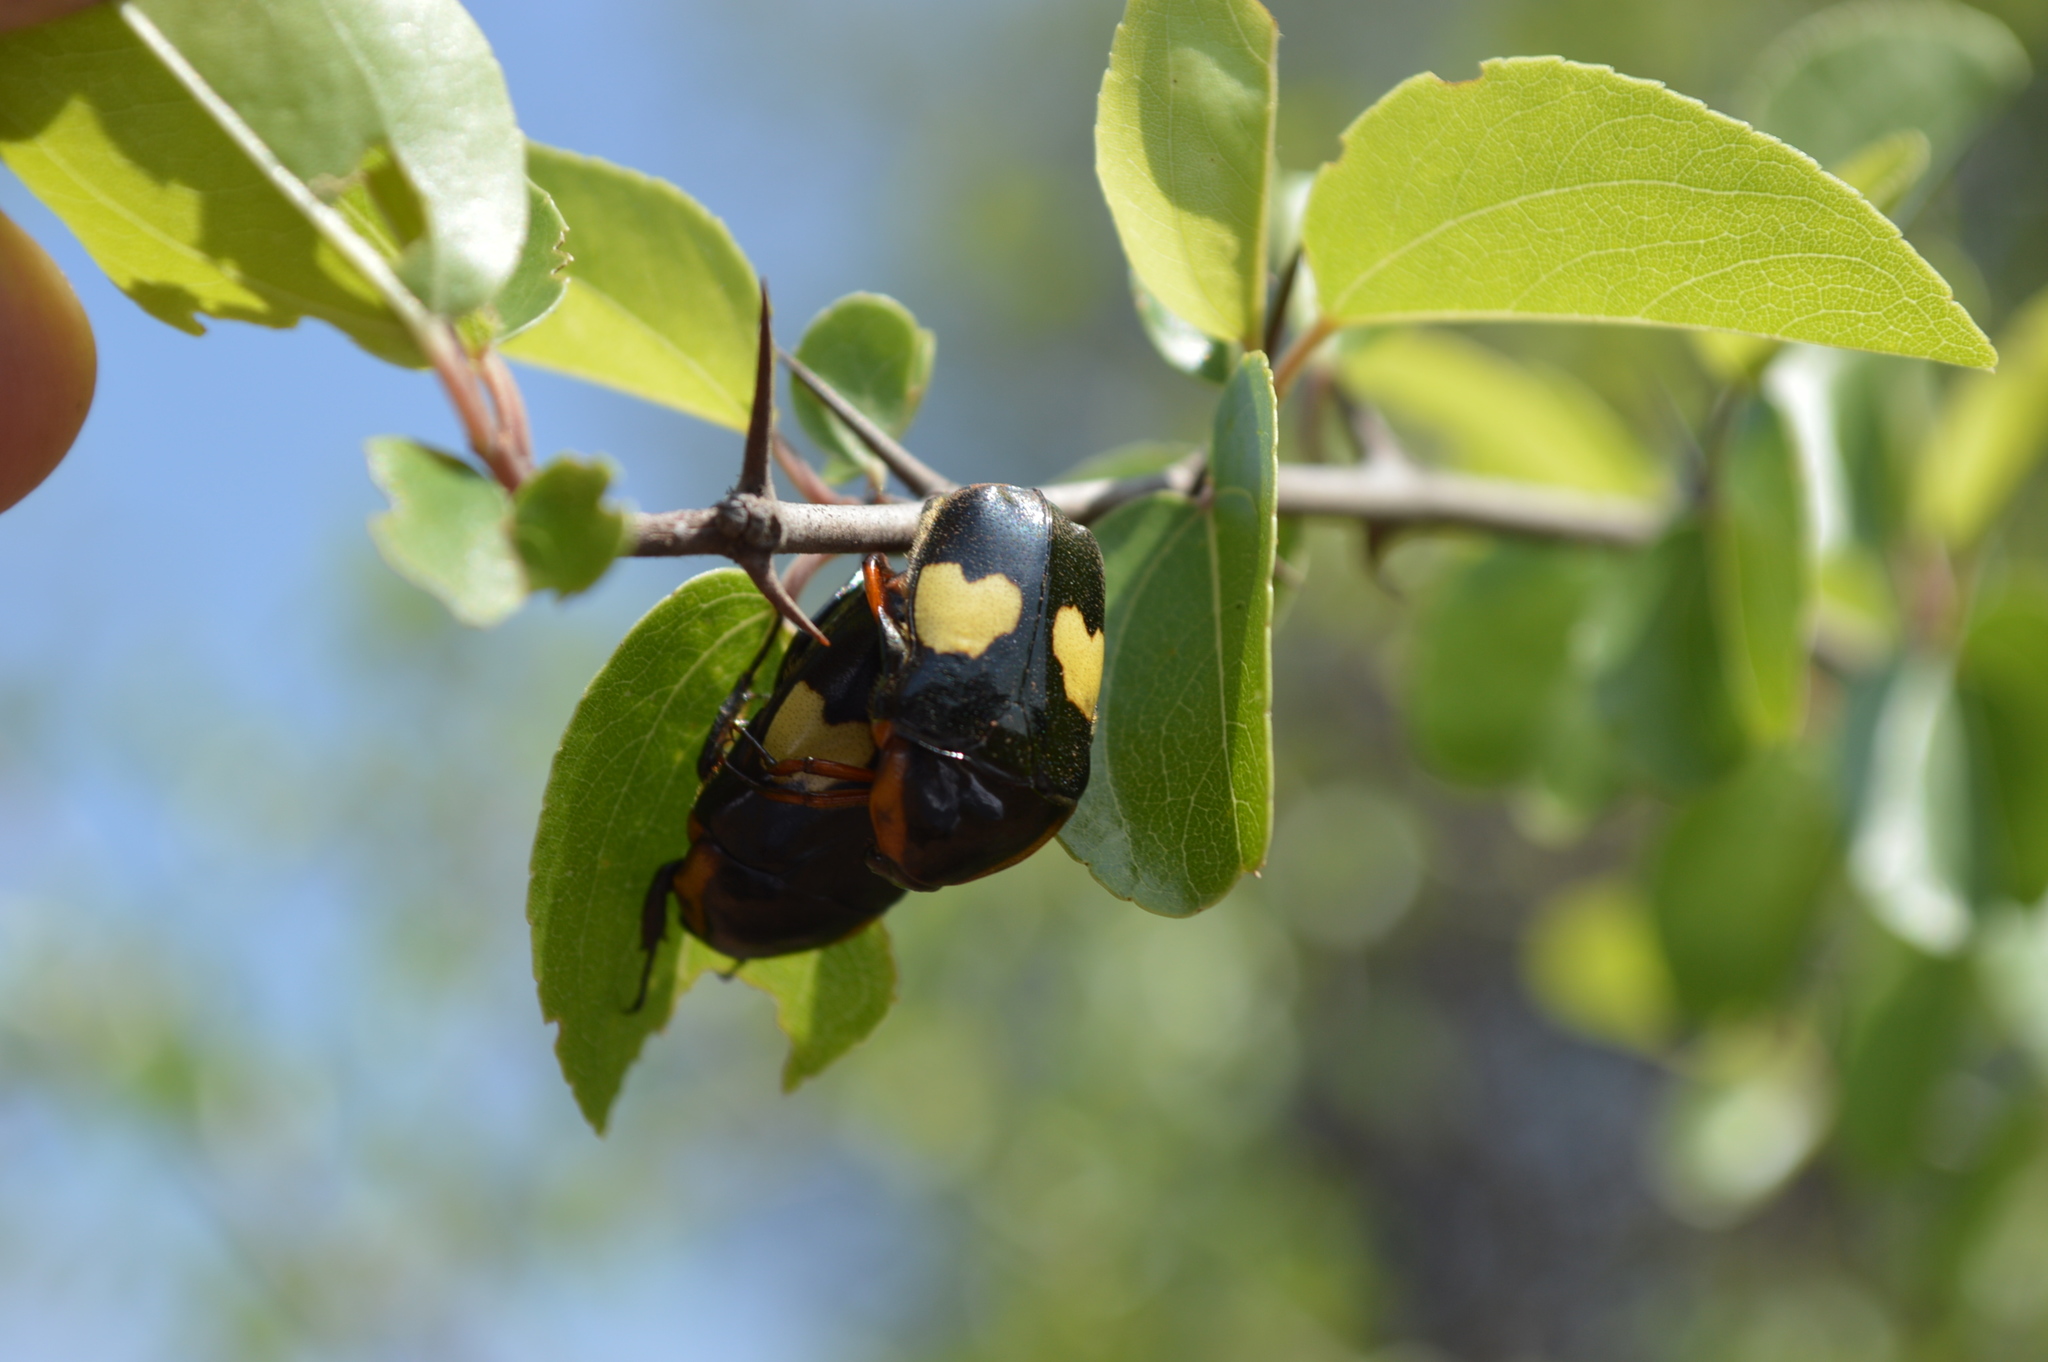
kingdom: Animalia
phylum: Arthropoda
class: Insecta
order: Coleoptera
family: Scarabaeidae
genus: Pedinorrhina
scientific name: Pedinorrhina
